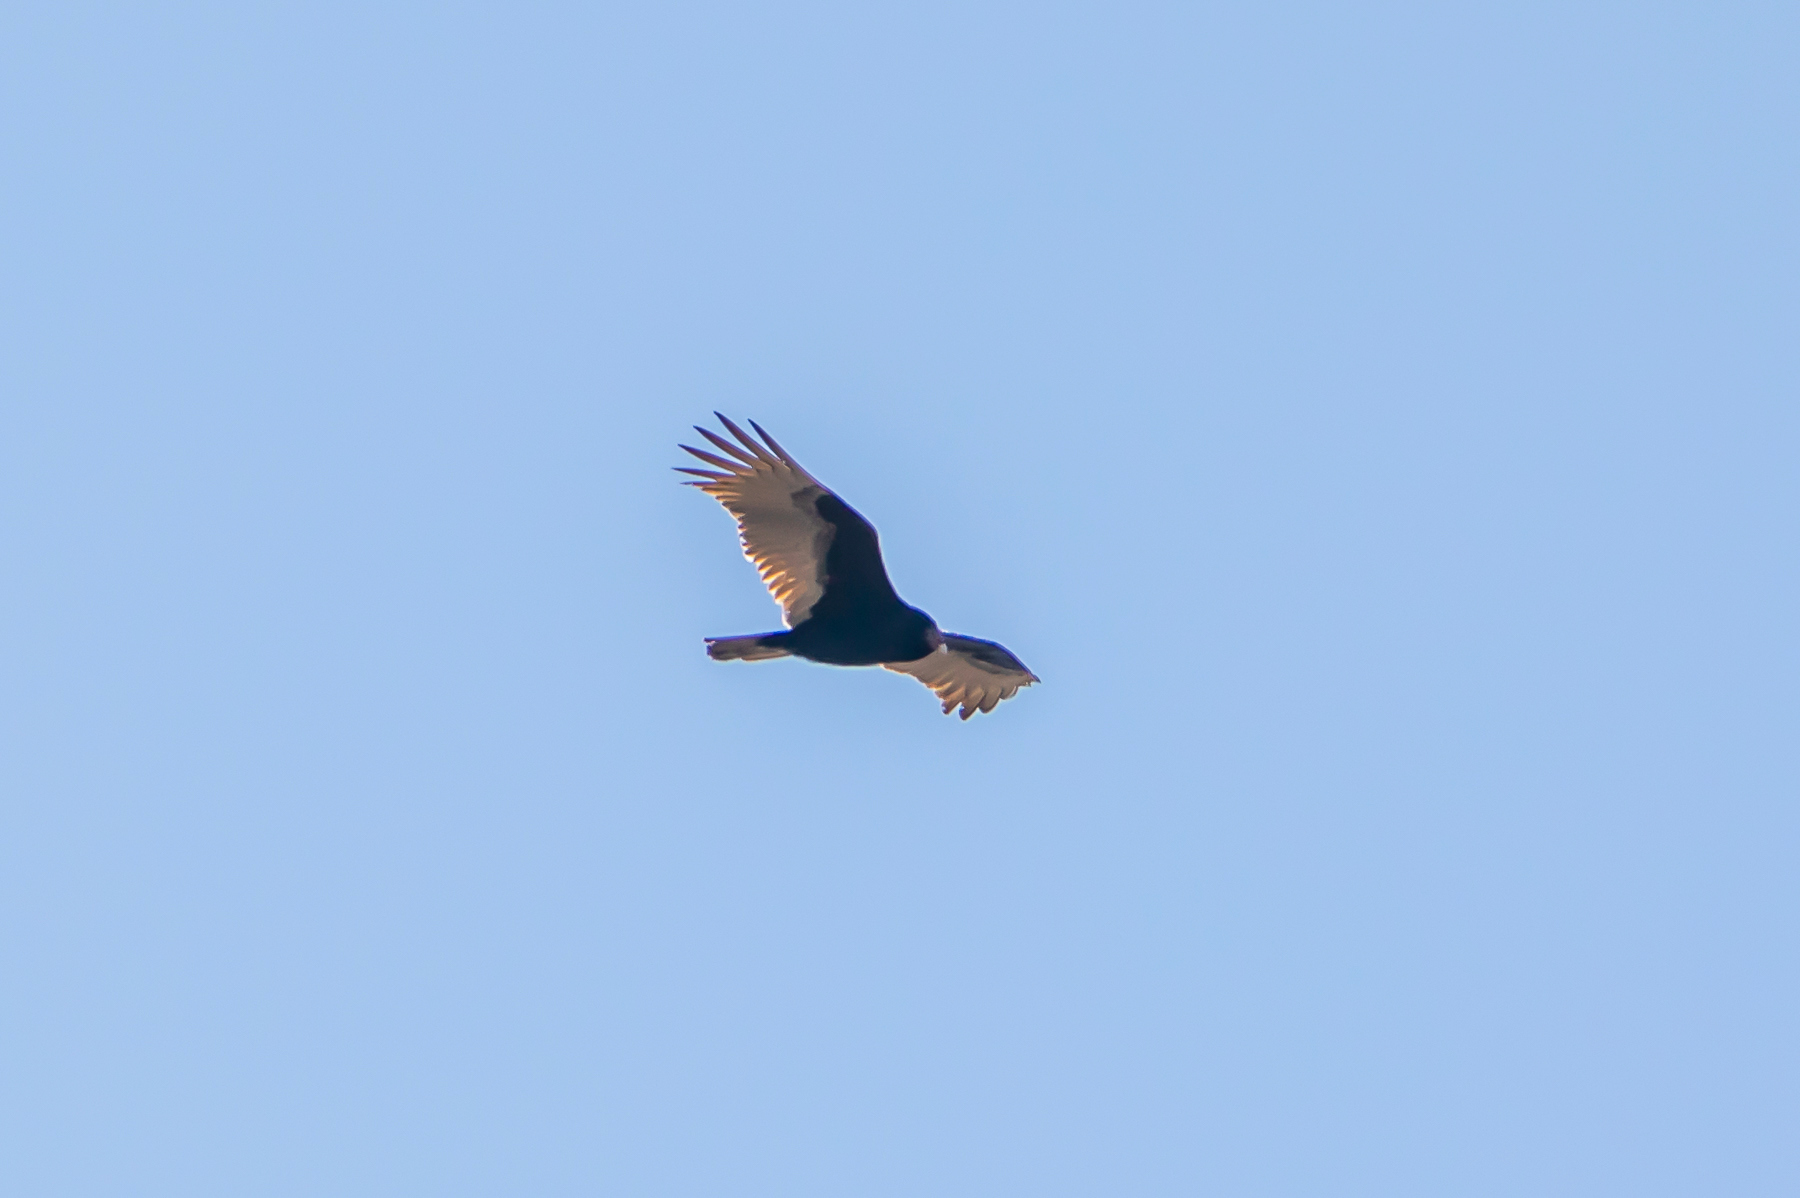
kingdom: Animalia
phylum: Chordata
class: Aves
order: Accipitriformes
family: Cathartidae
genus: Cathartes
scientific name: Cathartes aura
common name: Turkey vulture
